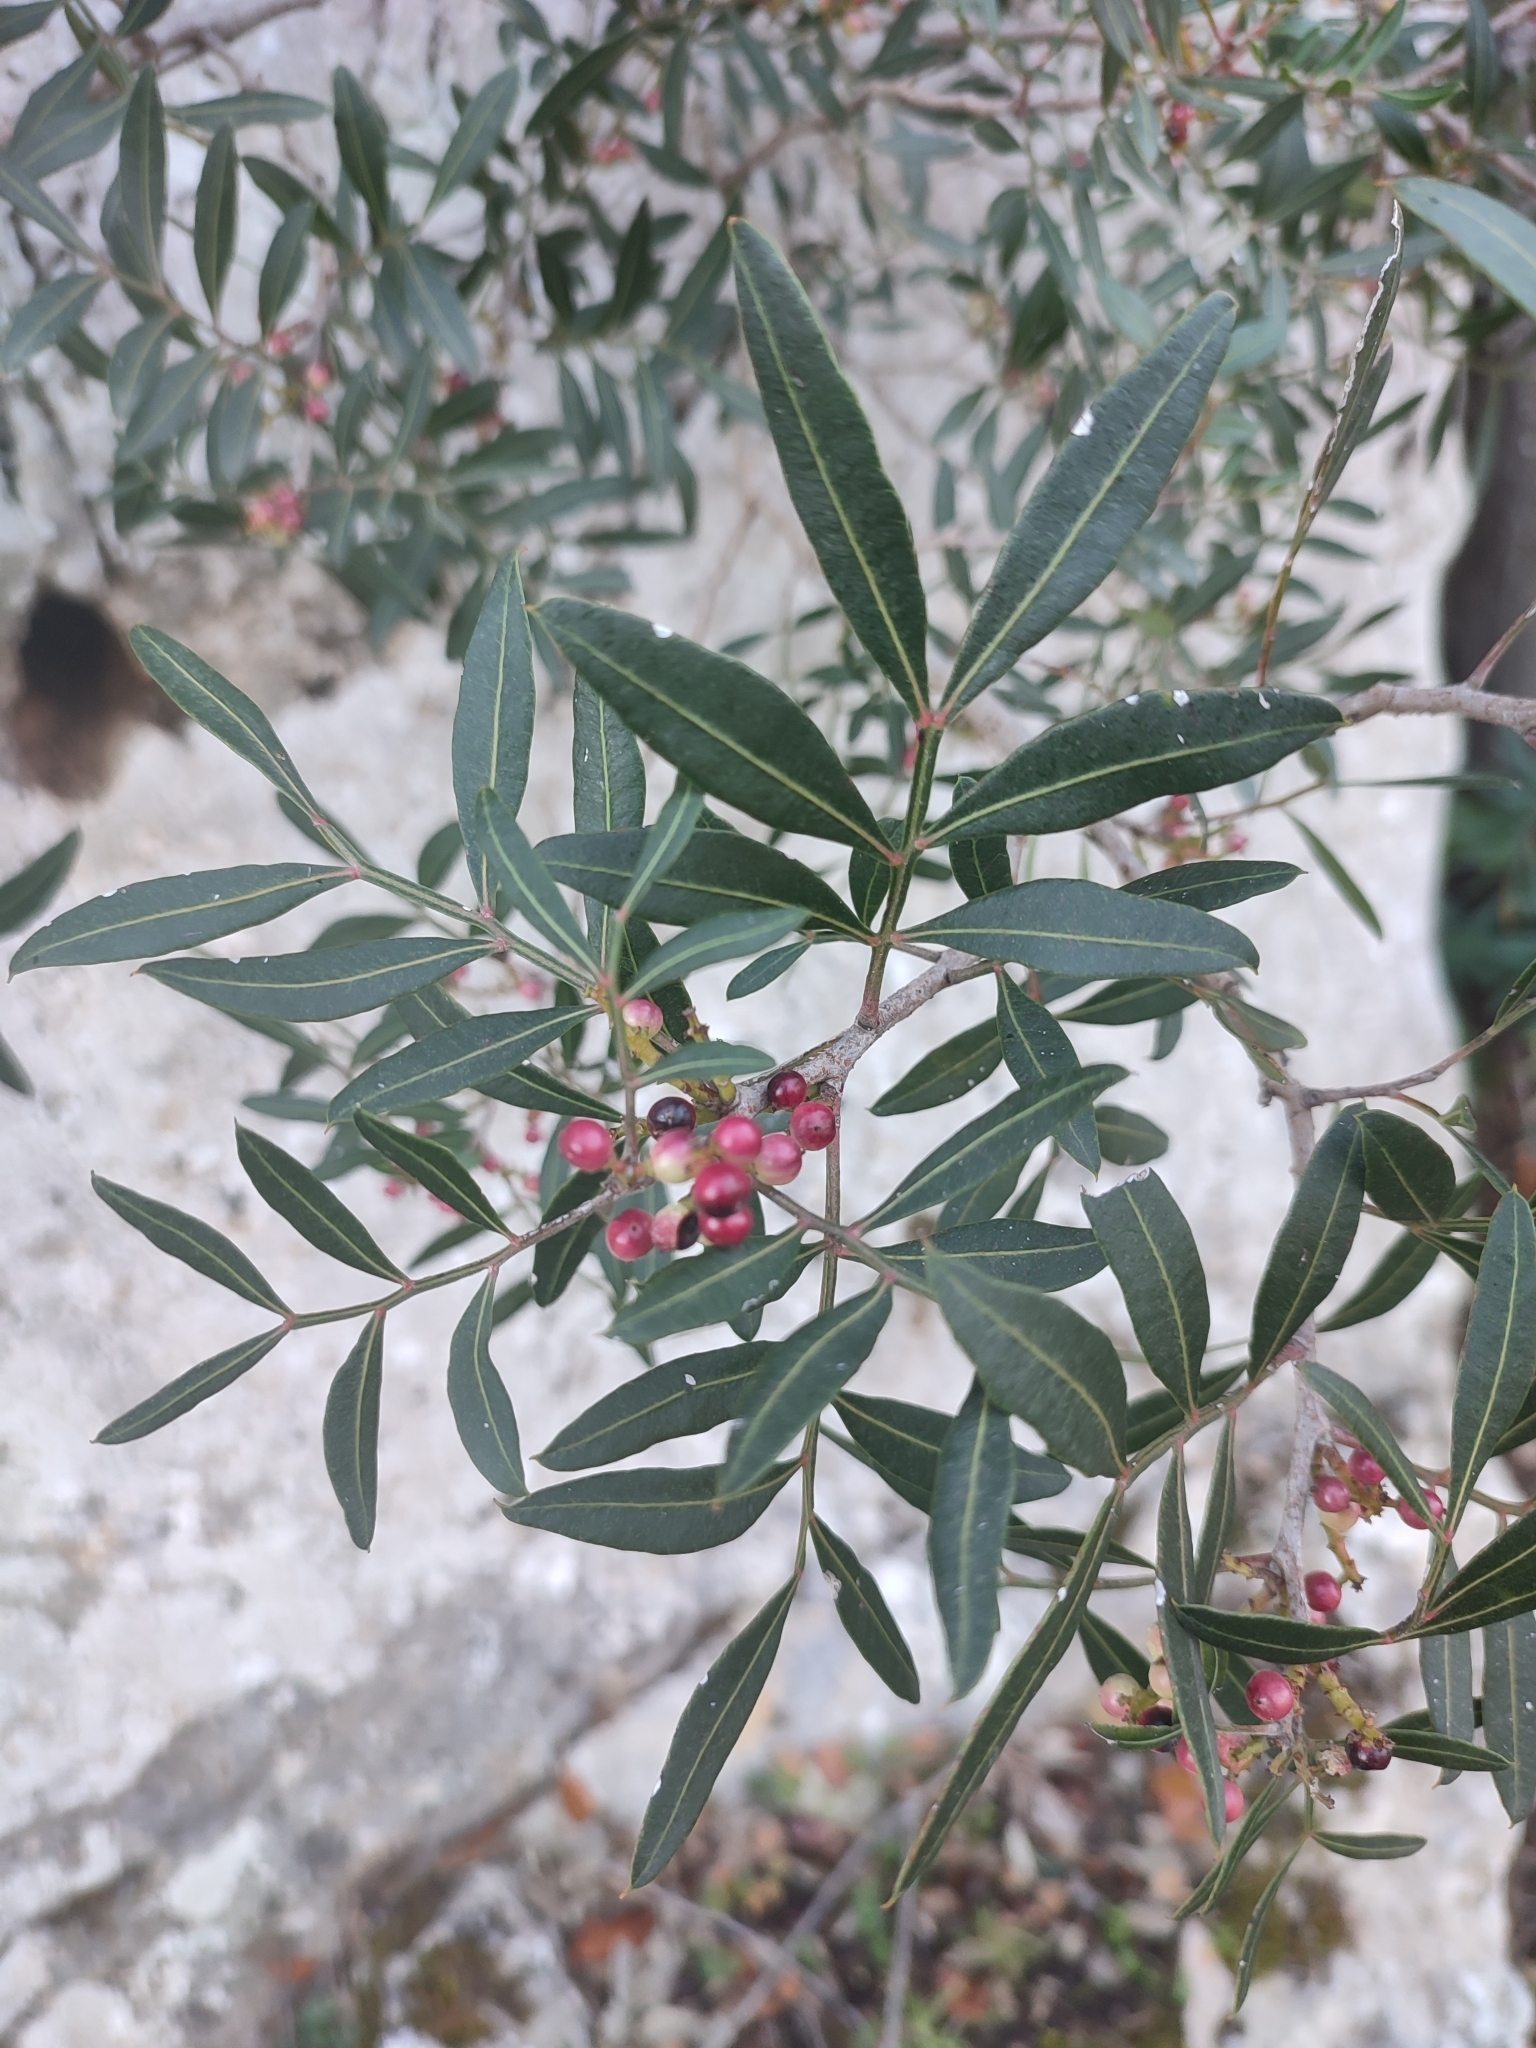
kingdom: Plantae
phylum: Tracheophyta
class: Magnoliopsida
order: Sapindales
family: Anacardiaceae
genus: Pistacia
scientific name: Pistacia lentiscus
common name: Lentisk
